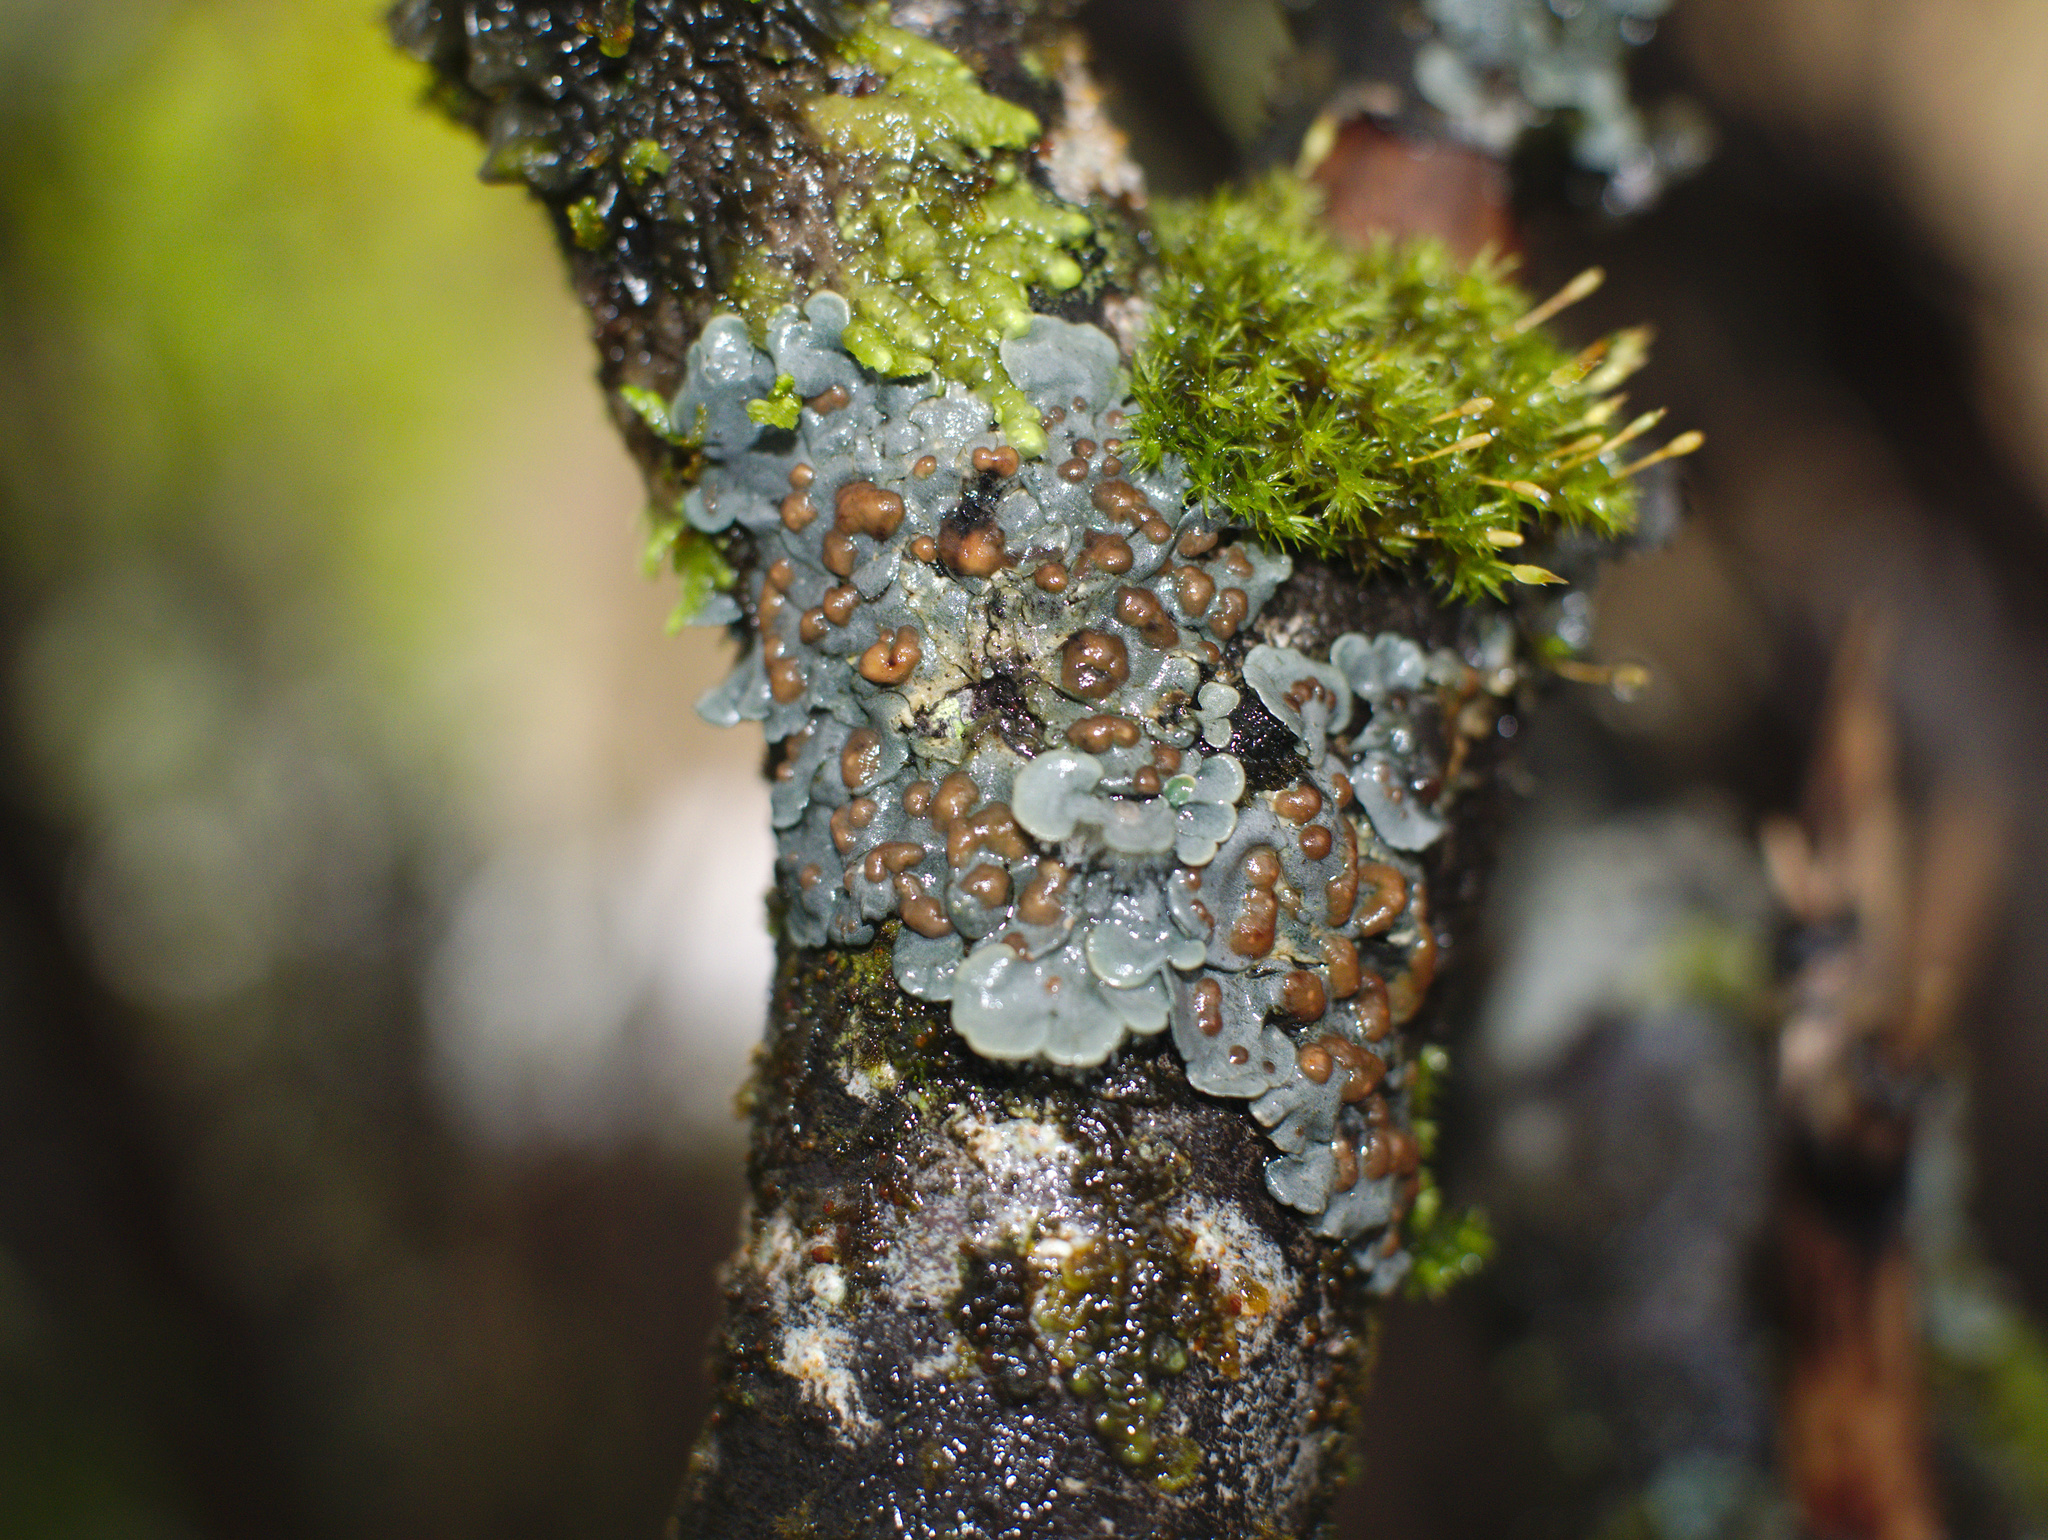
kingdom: Fungi
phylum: Ascomycota
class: Lecanoromycetes
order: Peltigerales
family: Coccocarpiaceae
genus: Coccocarpia
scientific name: Coccocarpia erythroxyli
